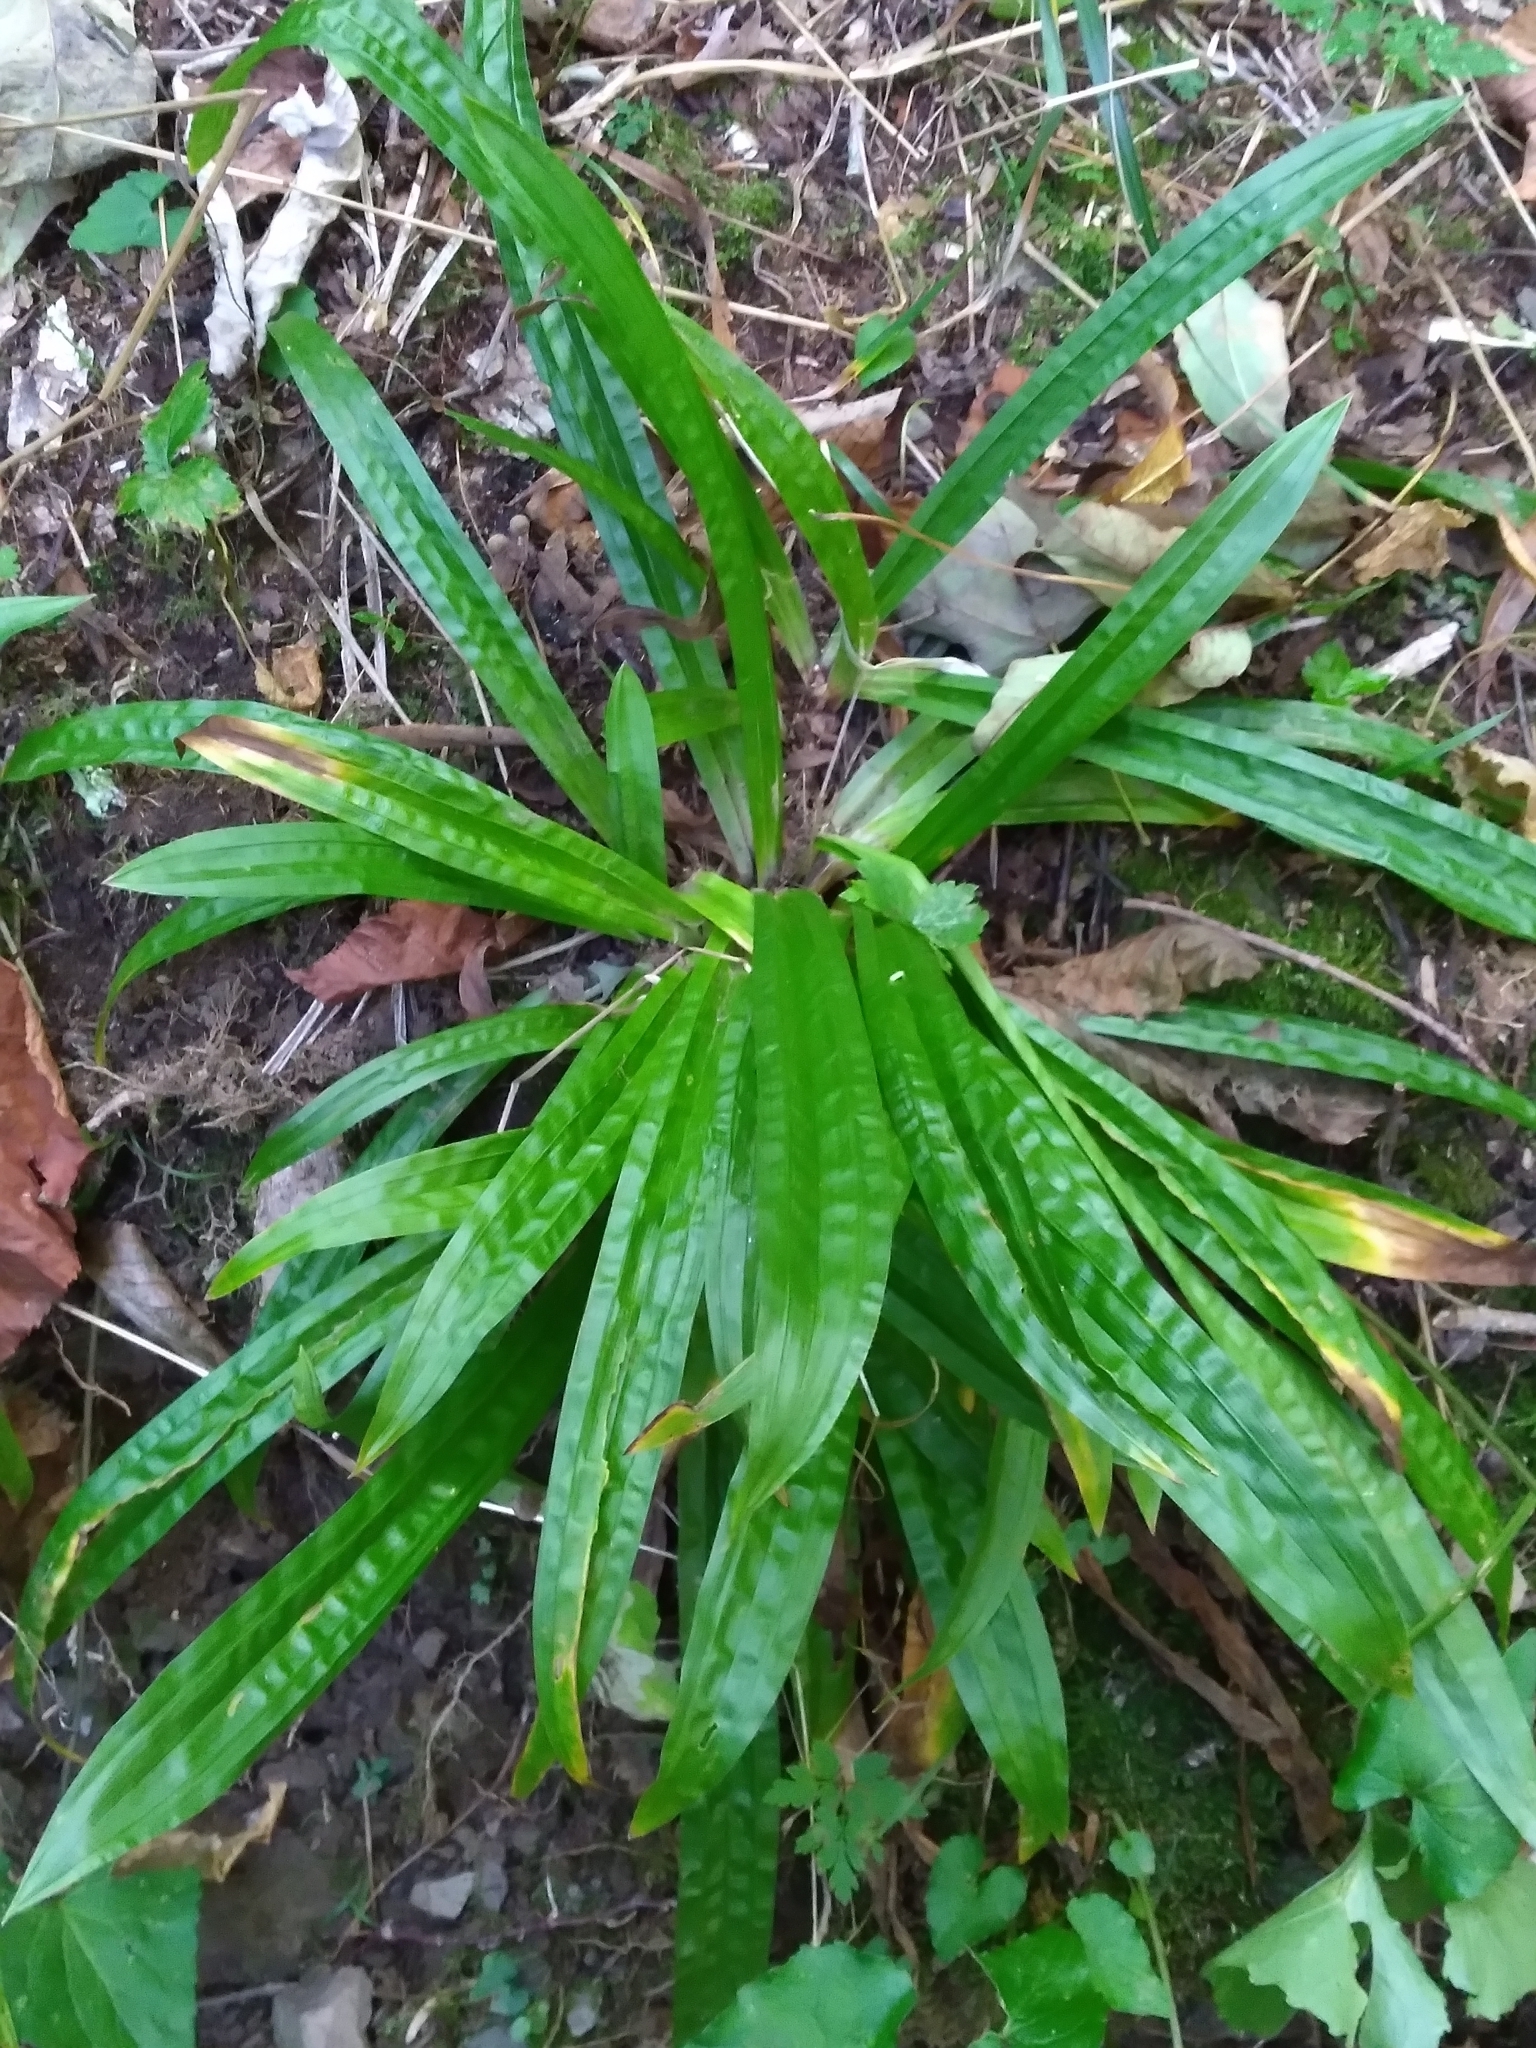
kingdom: Plantae
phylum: Tracheophyta
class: Liliopsida
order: Poales
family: Cyperaceae
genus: Carex
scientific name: Carex platyphylla
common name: Broad-leaved sedge
